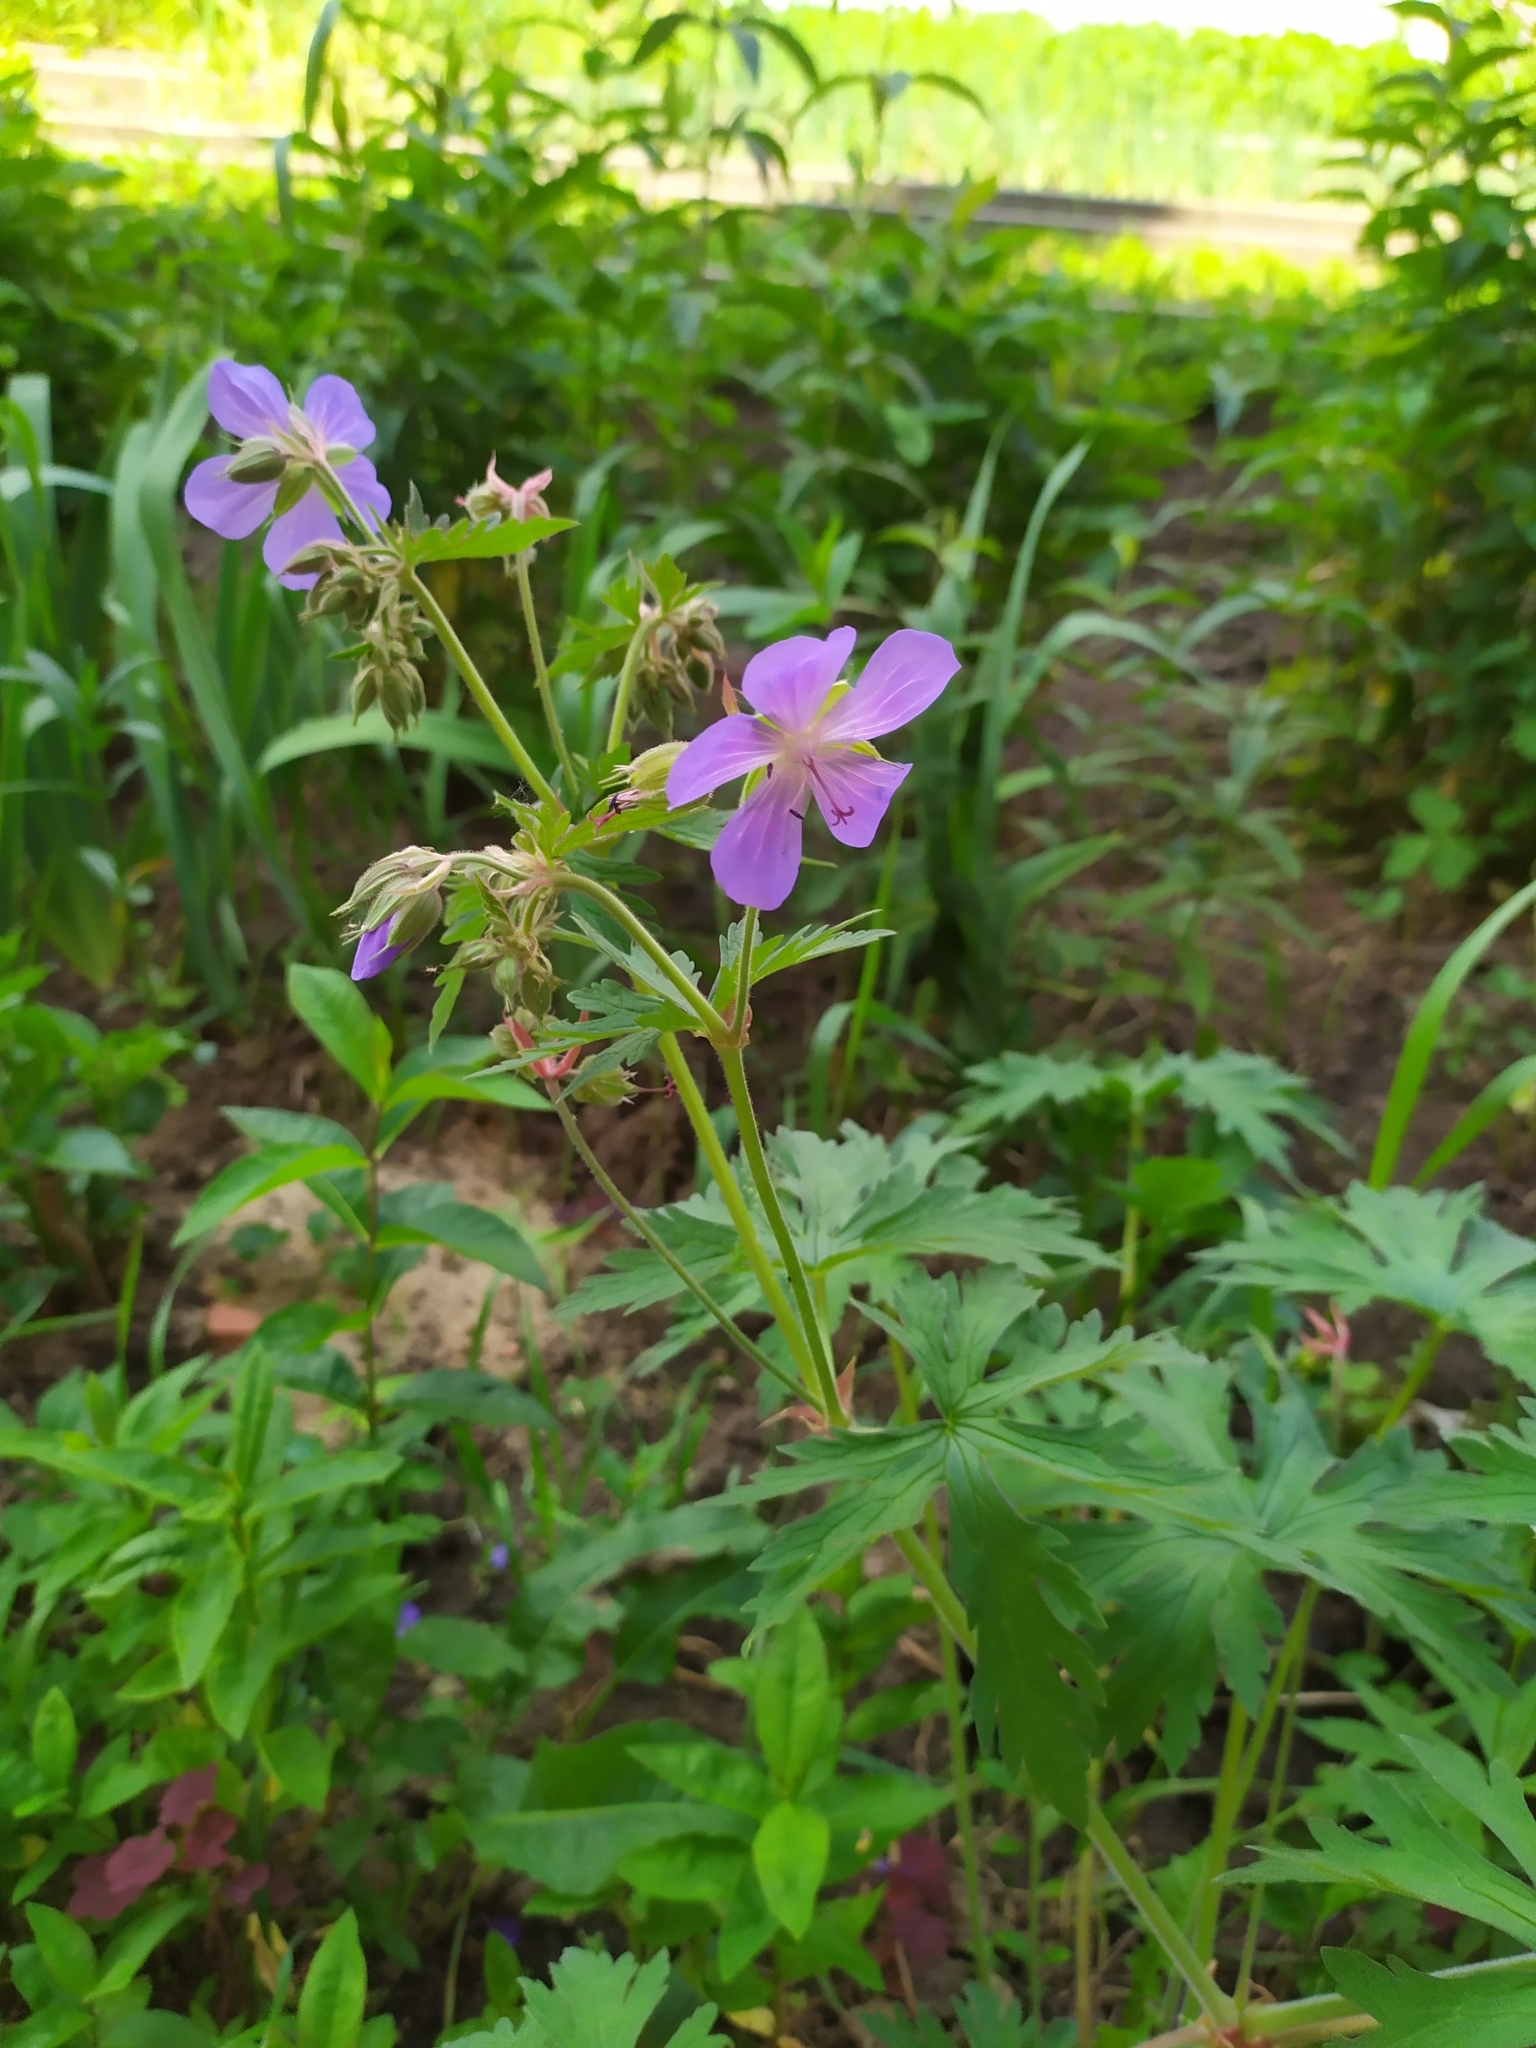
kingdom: Plantae
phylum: Tracheophyta
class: Magnoliopsida
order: Geraniales
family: Geraniaceae
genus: Geranium
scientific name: Geranium pratense
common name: Meadow crane's-bill
